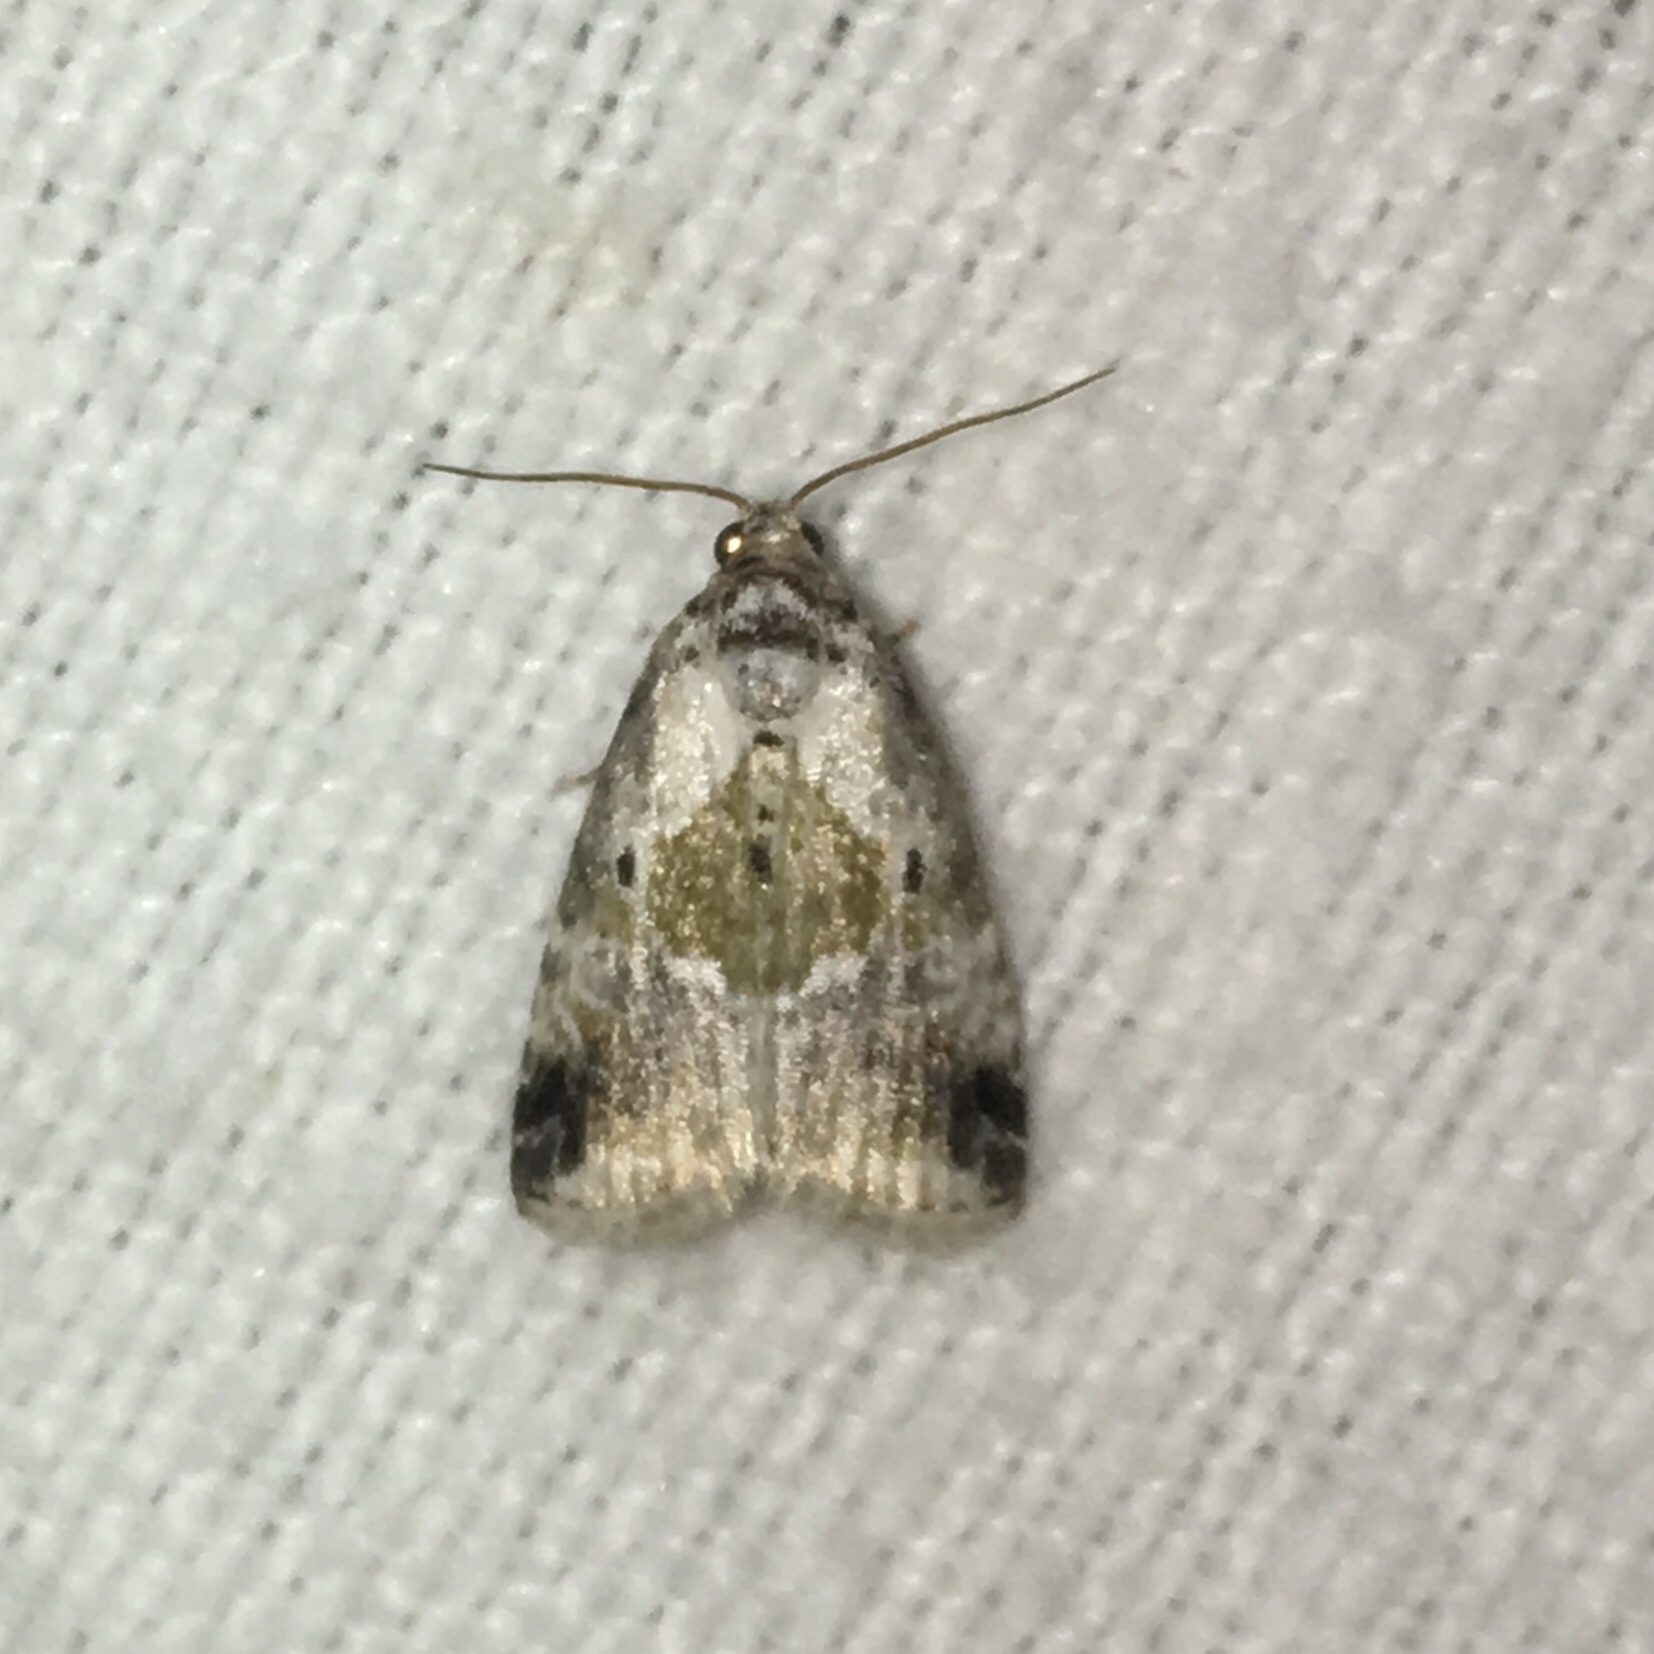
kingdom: Animalia
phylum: Arthropoda
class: Insecta
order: Lepidoptera
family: Noctuidae
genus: Maliattha
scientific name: Maliattha synochitis
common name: Black-dotted glyph
